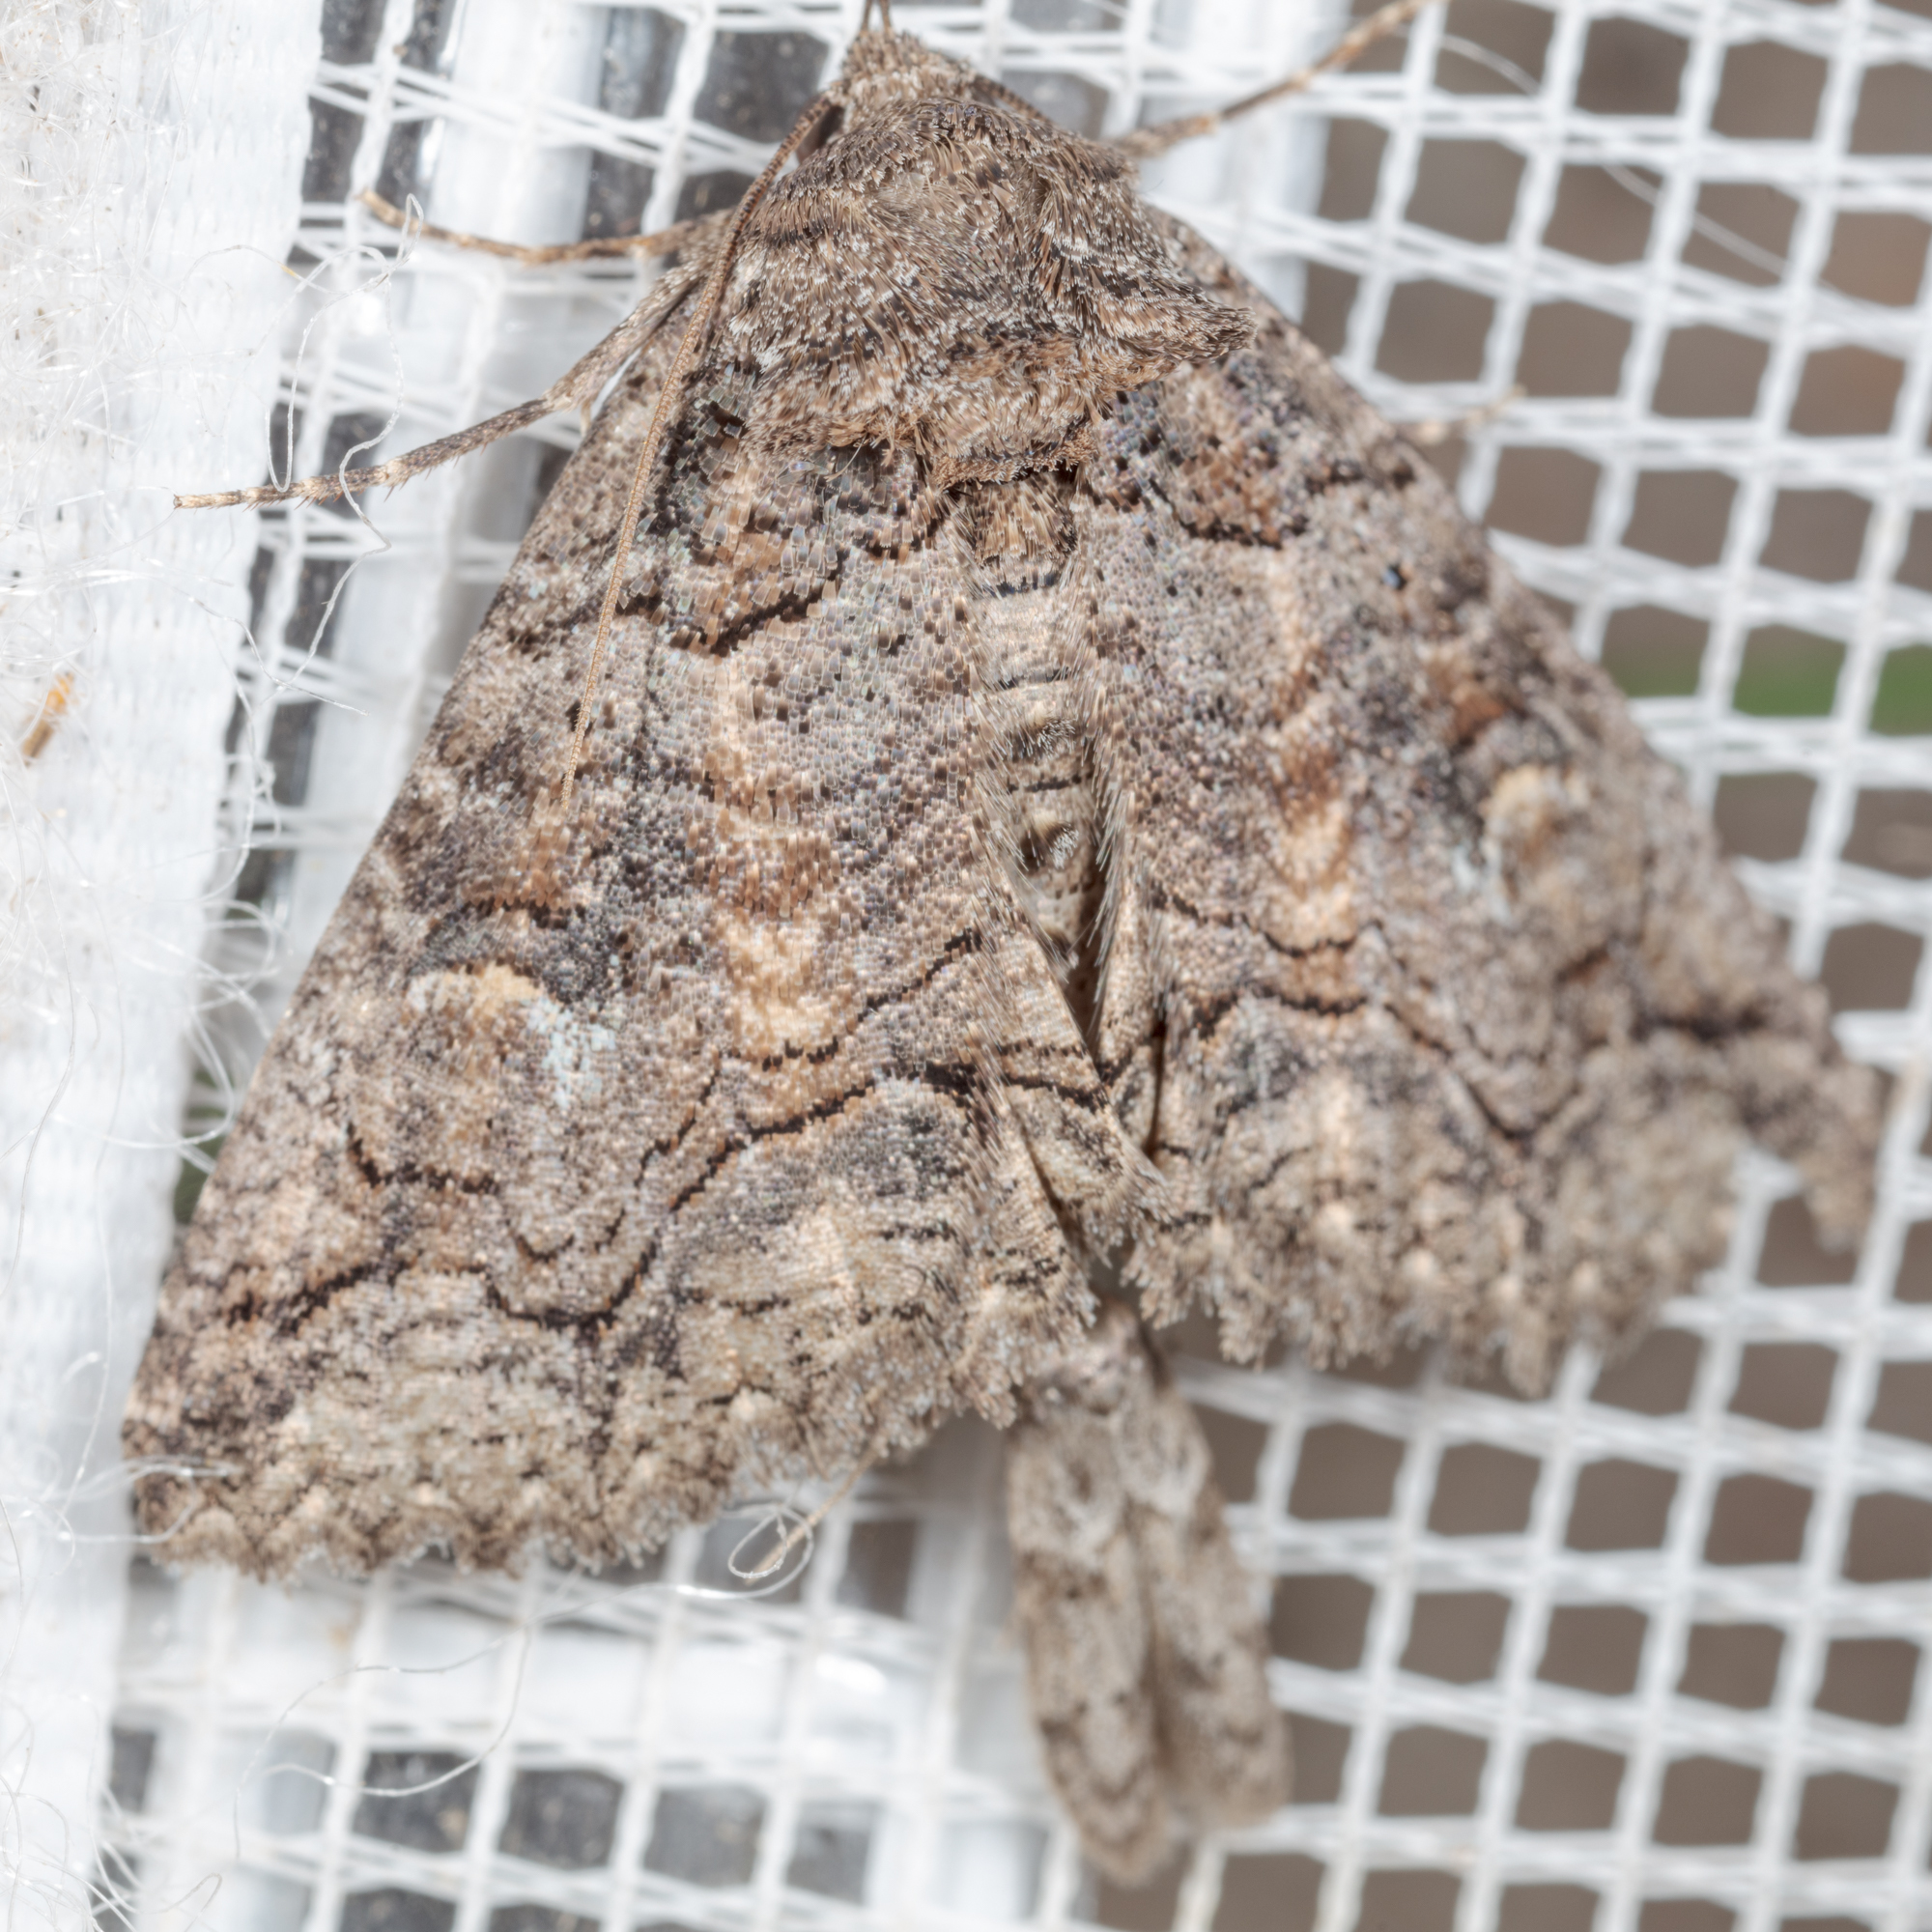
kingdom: Animalia
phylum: Arthropoda
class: Insecta
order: Lepidoptera
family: Erebidae
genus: Zale
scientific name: Zale edusina
